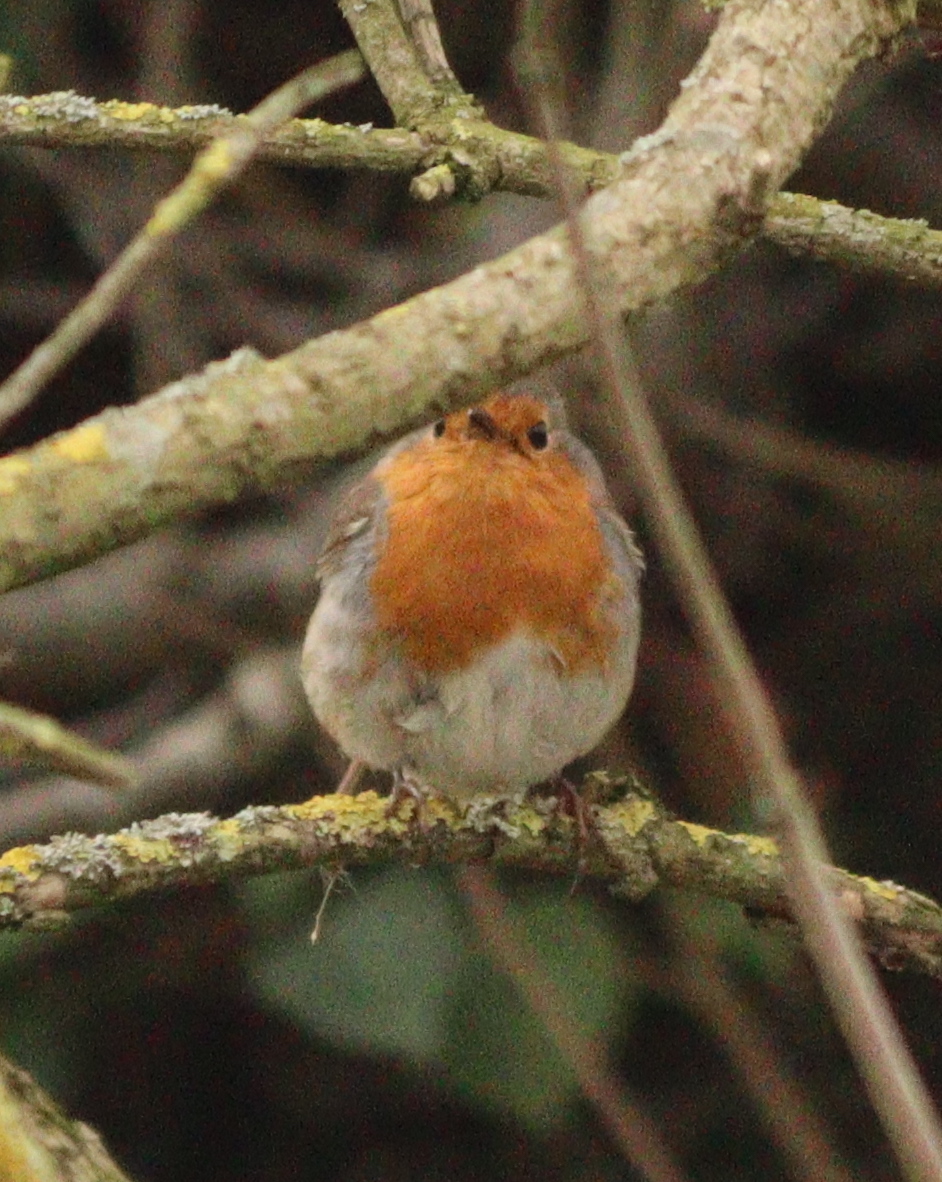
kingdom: Animalia
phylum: Chordata
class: Aves
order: Passeriformes
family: Muscicapidae
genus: Erithacus
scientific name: Erithacus rubecula
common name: European robin
